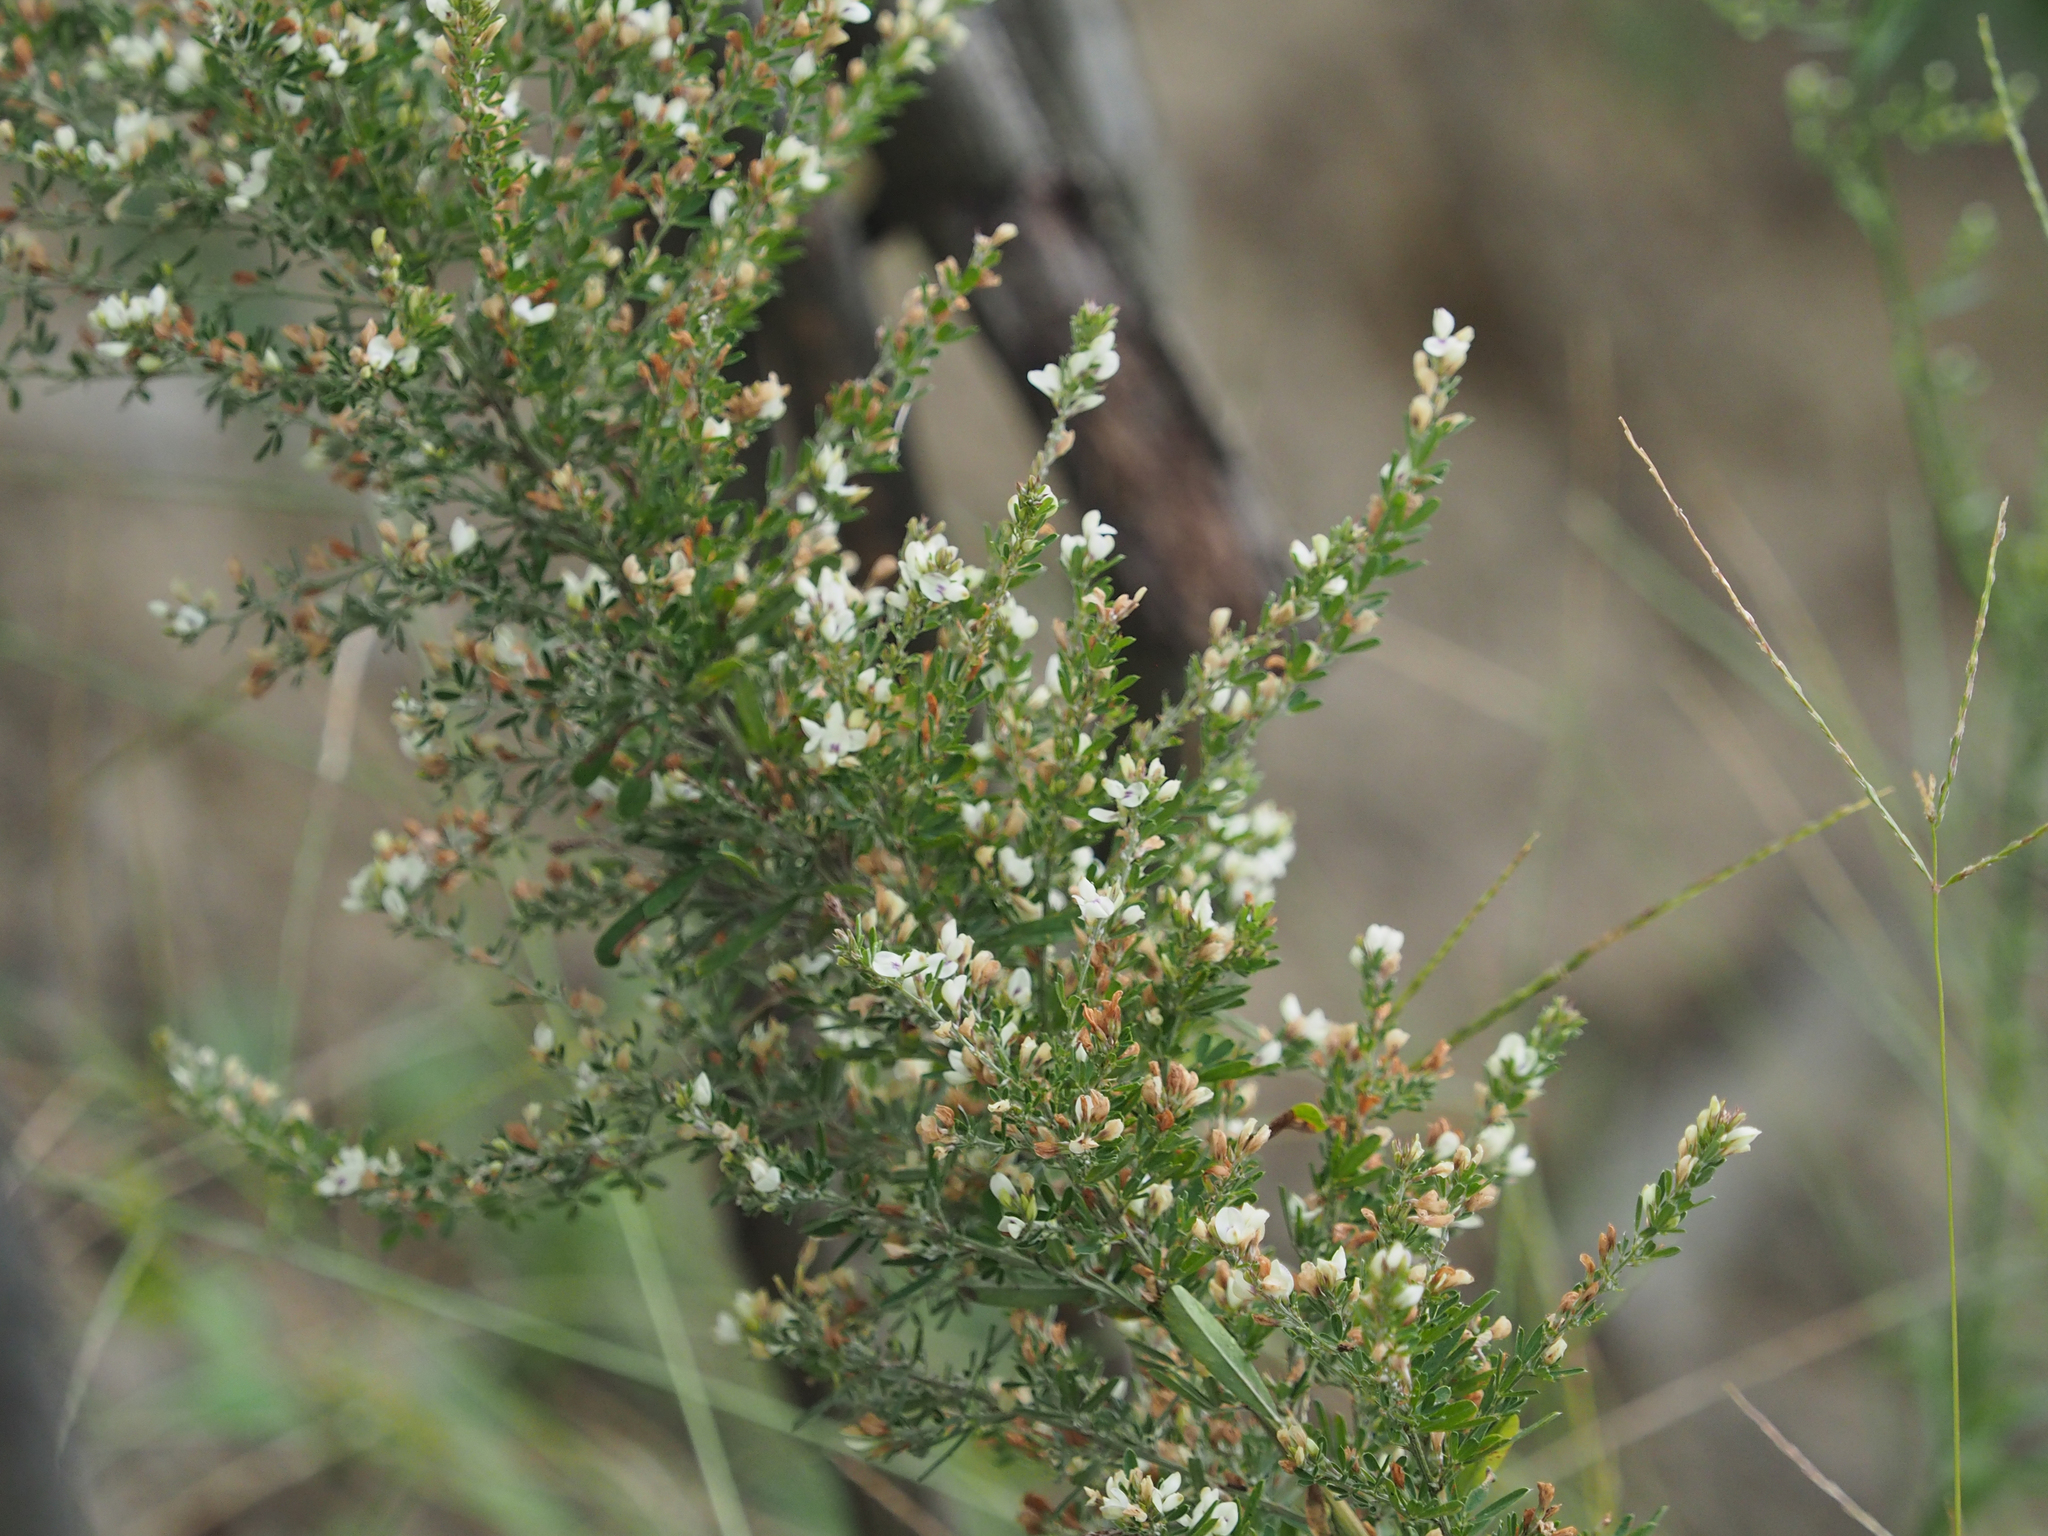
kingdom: Plantae
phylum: Tracheophyta
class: Magnoliopsida
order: Fabales
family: Fabaceae
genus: Lespedeza
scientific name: Lespedeza cuneata
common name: Chinese bush-clover
